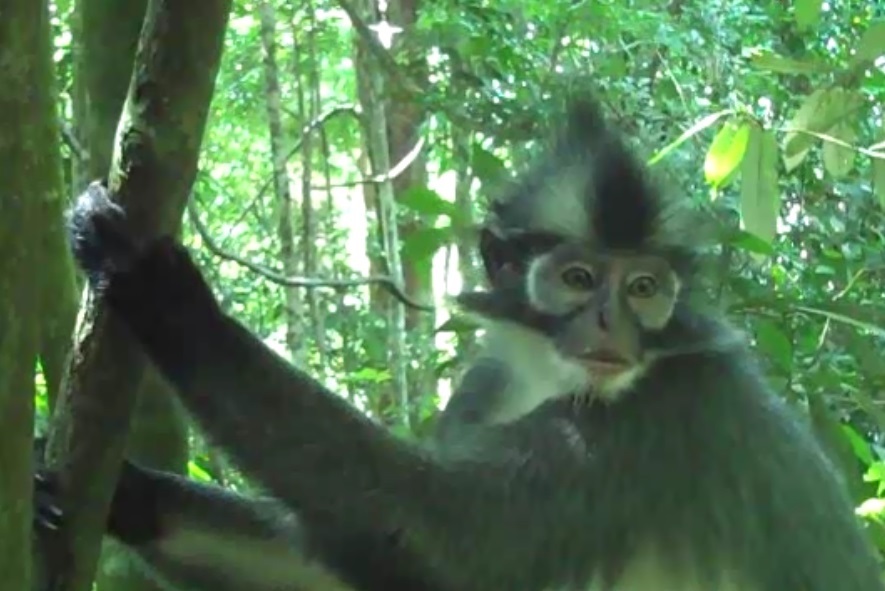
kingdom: Animalia
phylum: Chordata
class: Mammalia
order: Primates
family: Cercopithecidae
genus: Presbytis
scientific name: Presbytis thomasi
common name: Thomas's langur
